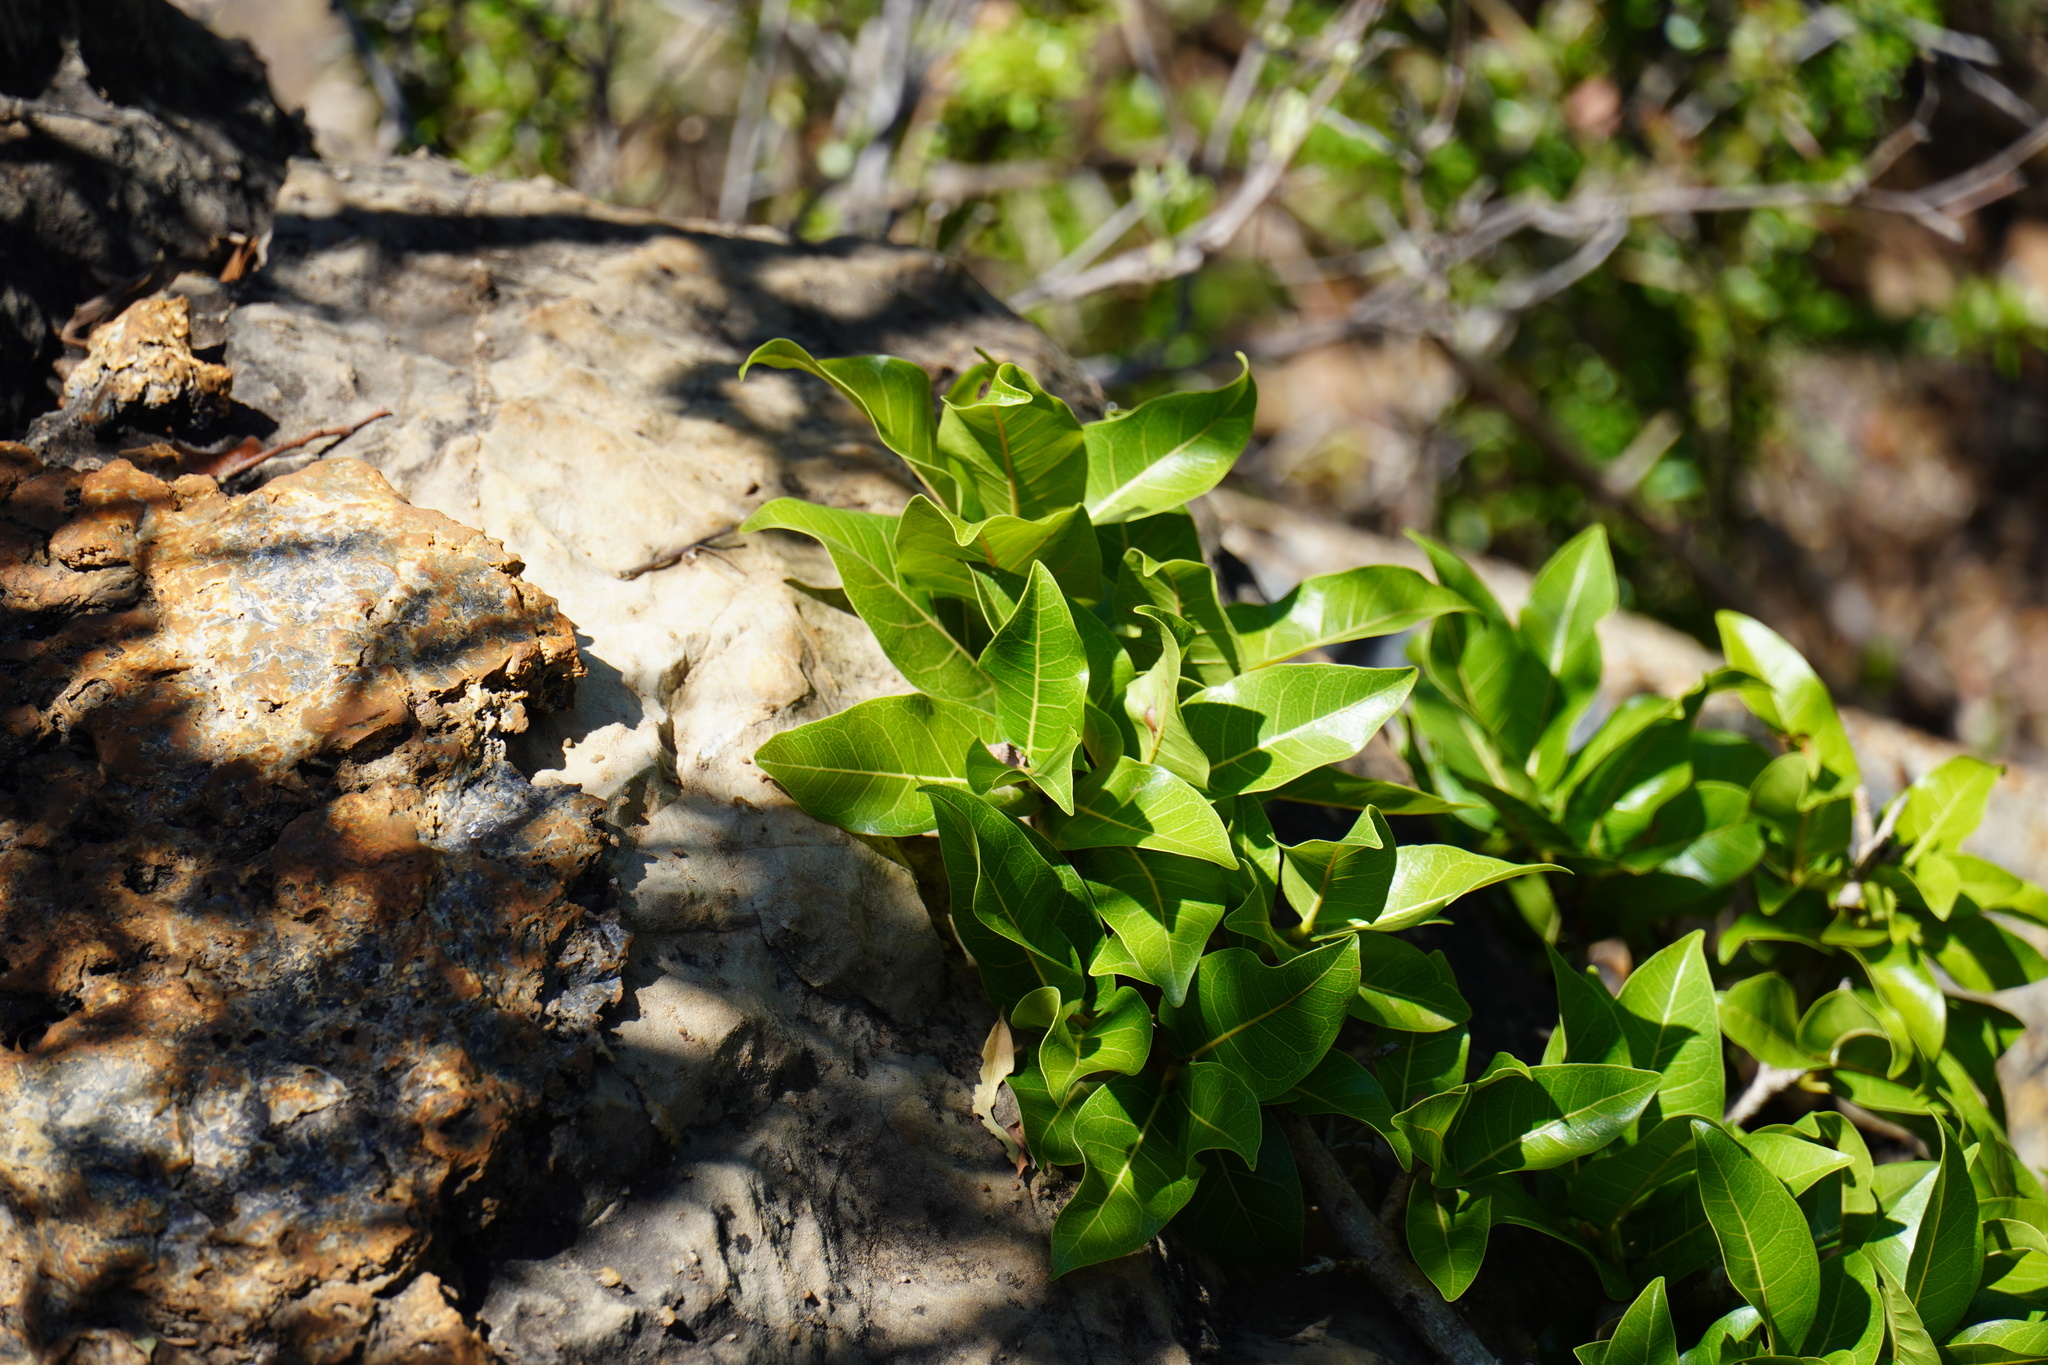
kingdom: Plantae
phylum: Tracheophyta
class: Magnoliopsida
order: Rosales
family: Moraceae
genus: Ficus
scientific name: Ficus ingens
